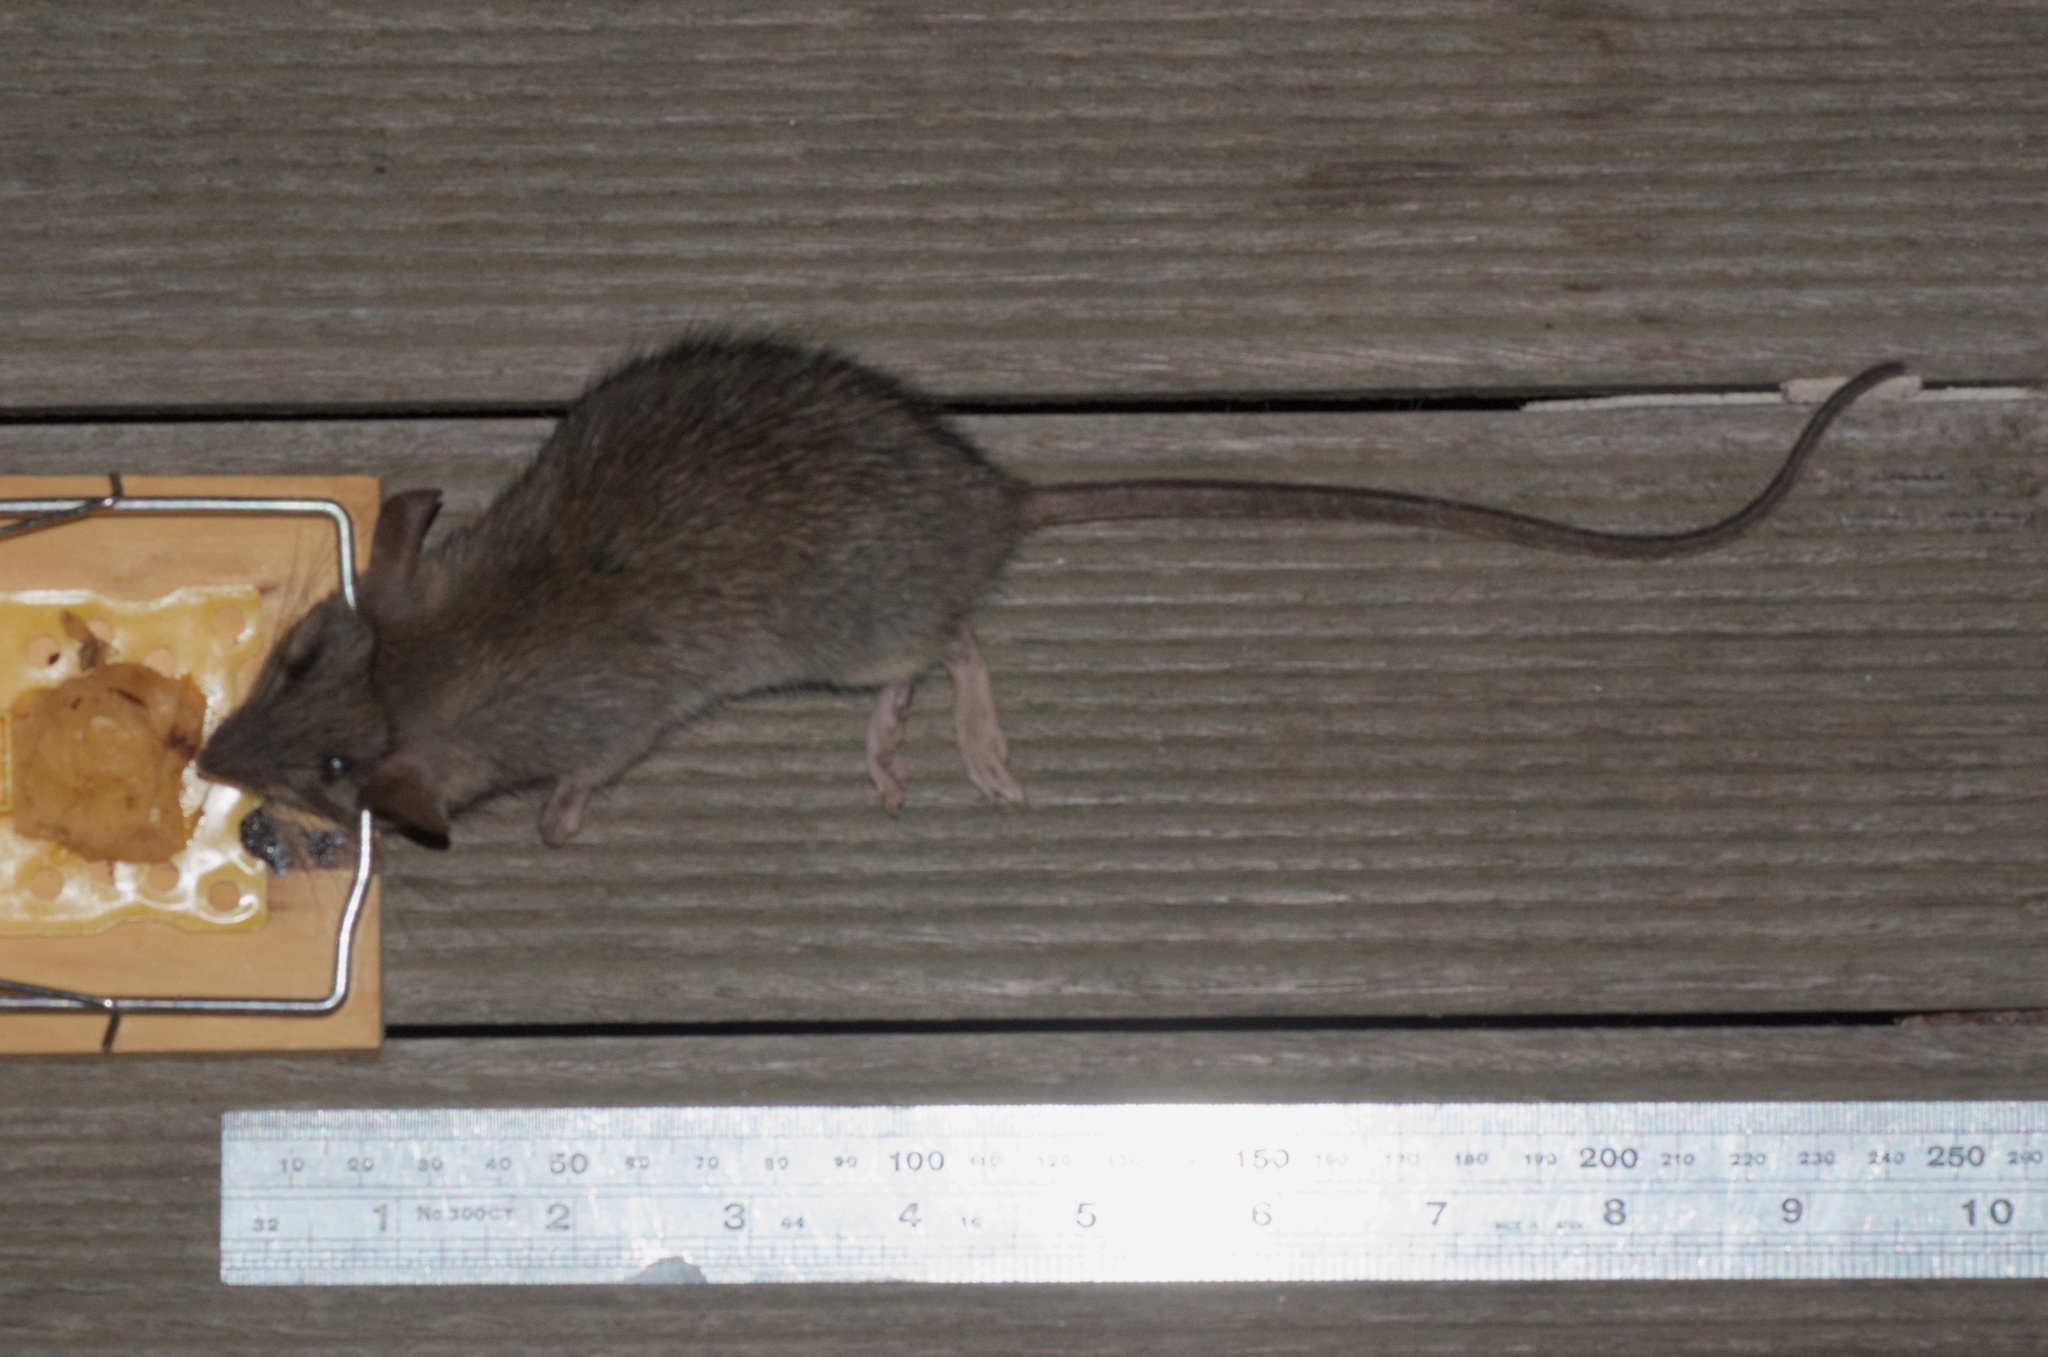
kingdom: Animalia
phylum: Chordata
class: Mammalia
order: Rodentia
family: Muridae
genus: Rattus
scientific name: Rattus rattus
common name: Black rat
